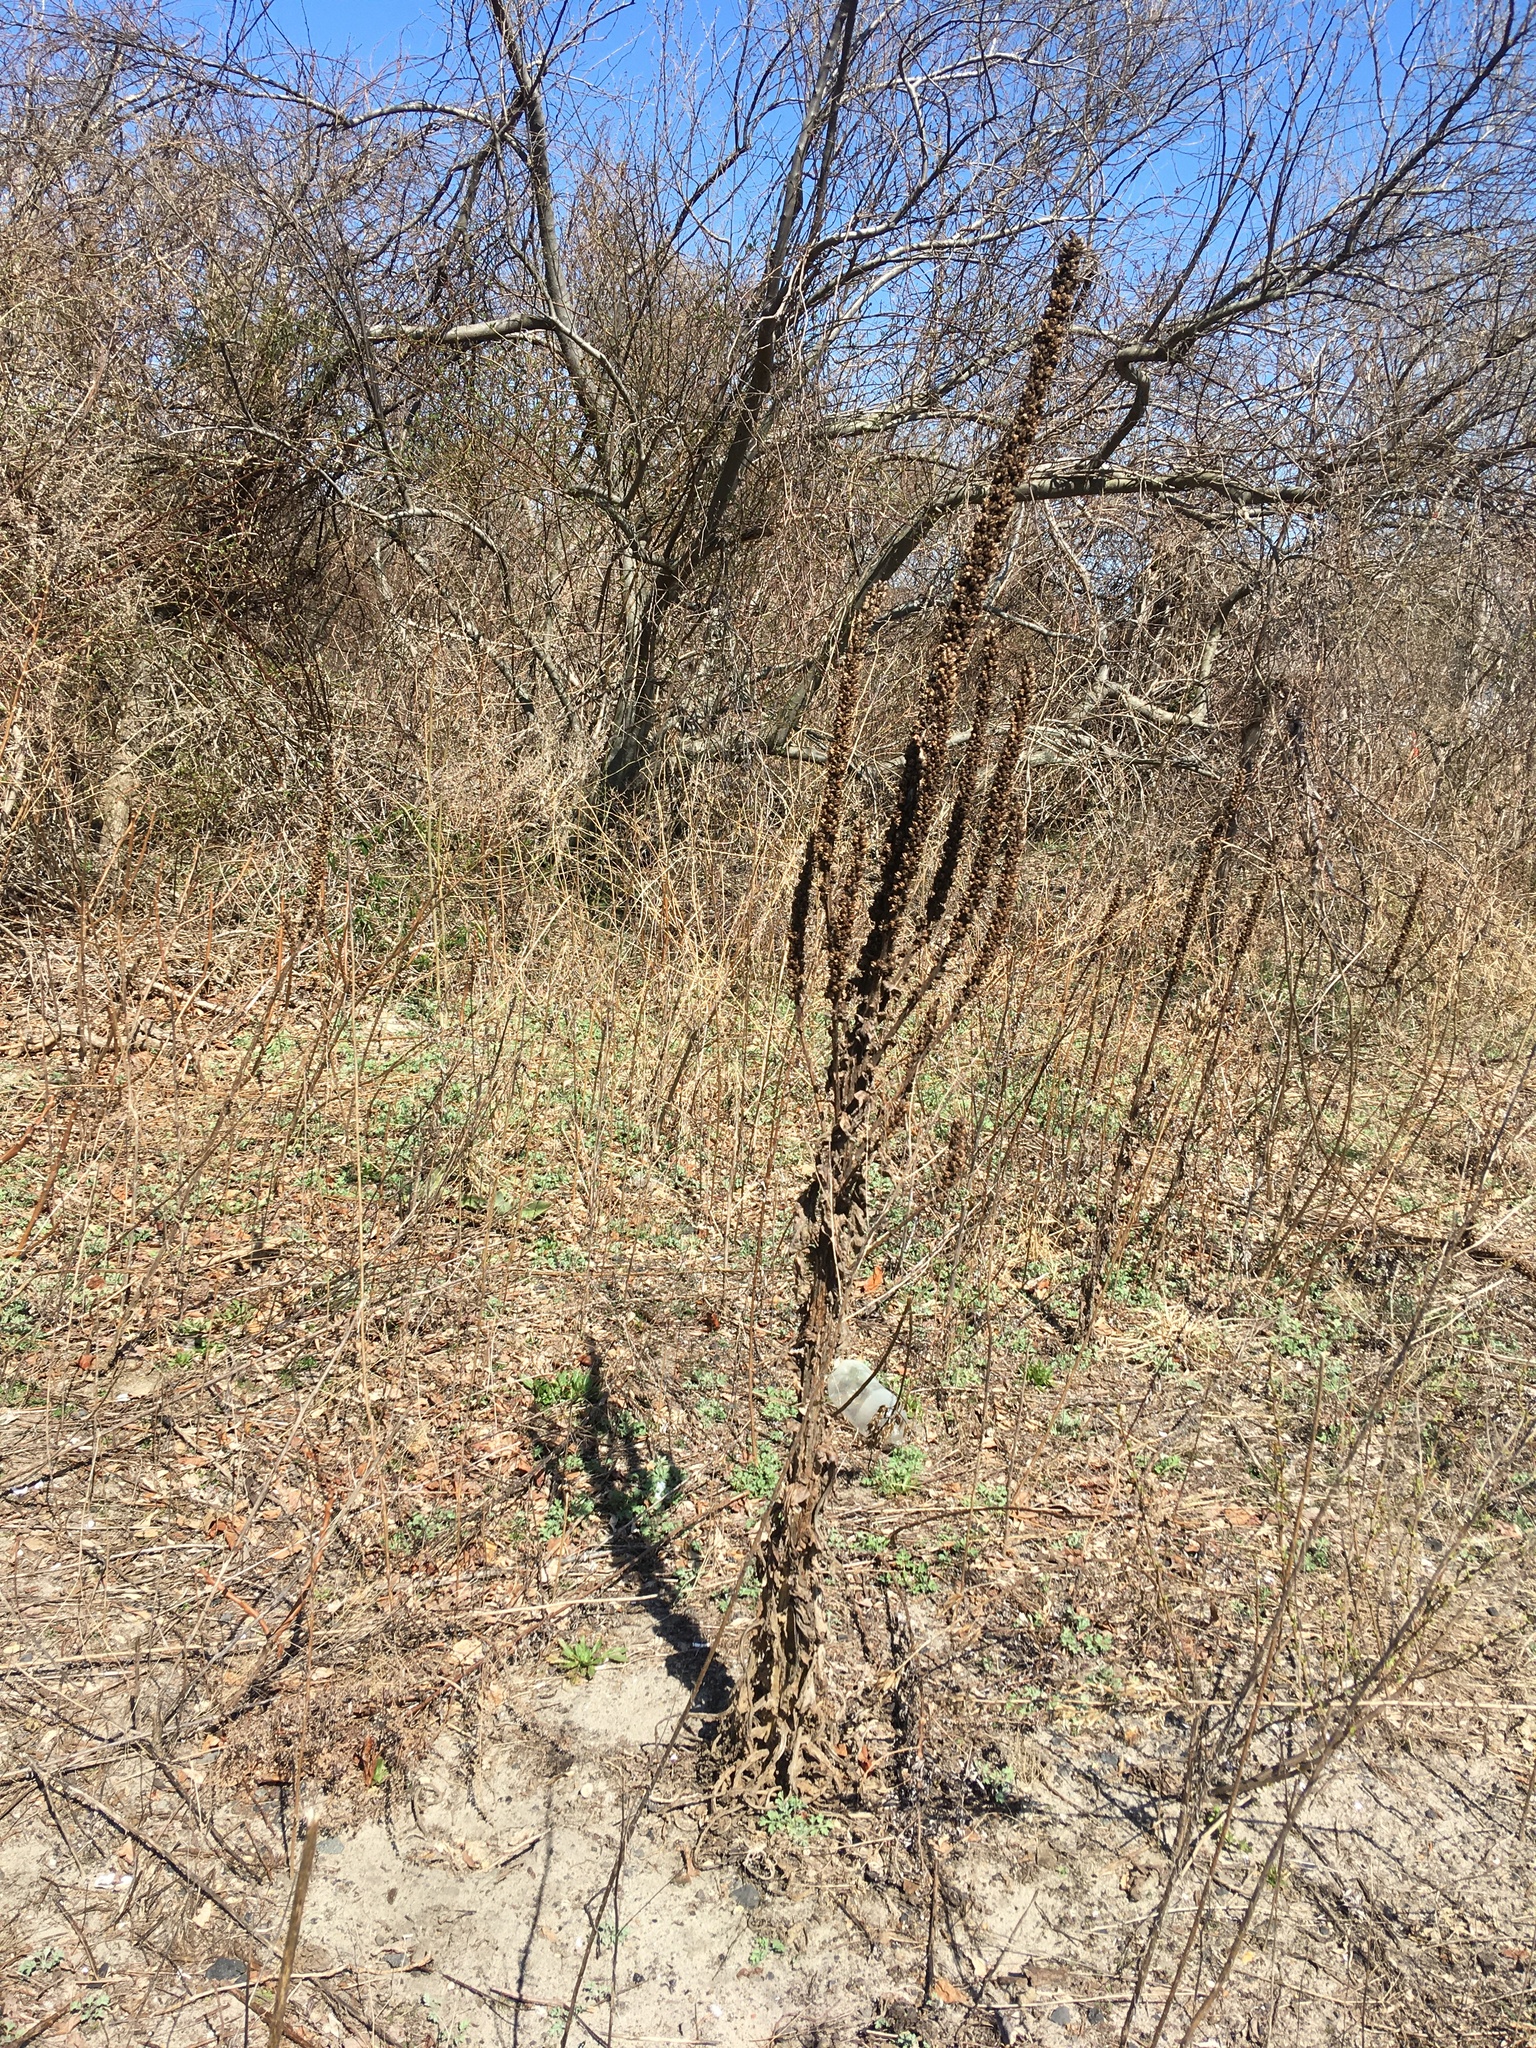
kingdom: Plantae
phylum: Tracheophyta
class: Magnoliopsida
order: Lamiales
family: Scrophulariaceae
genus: Verbascum
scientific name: Verbascum thapsus
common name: Common mullein
